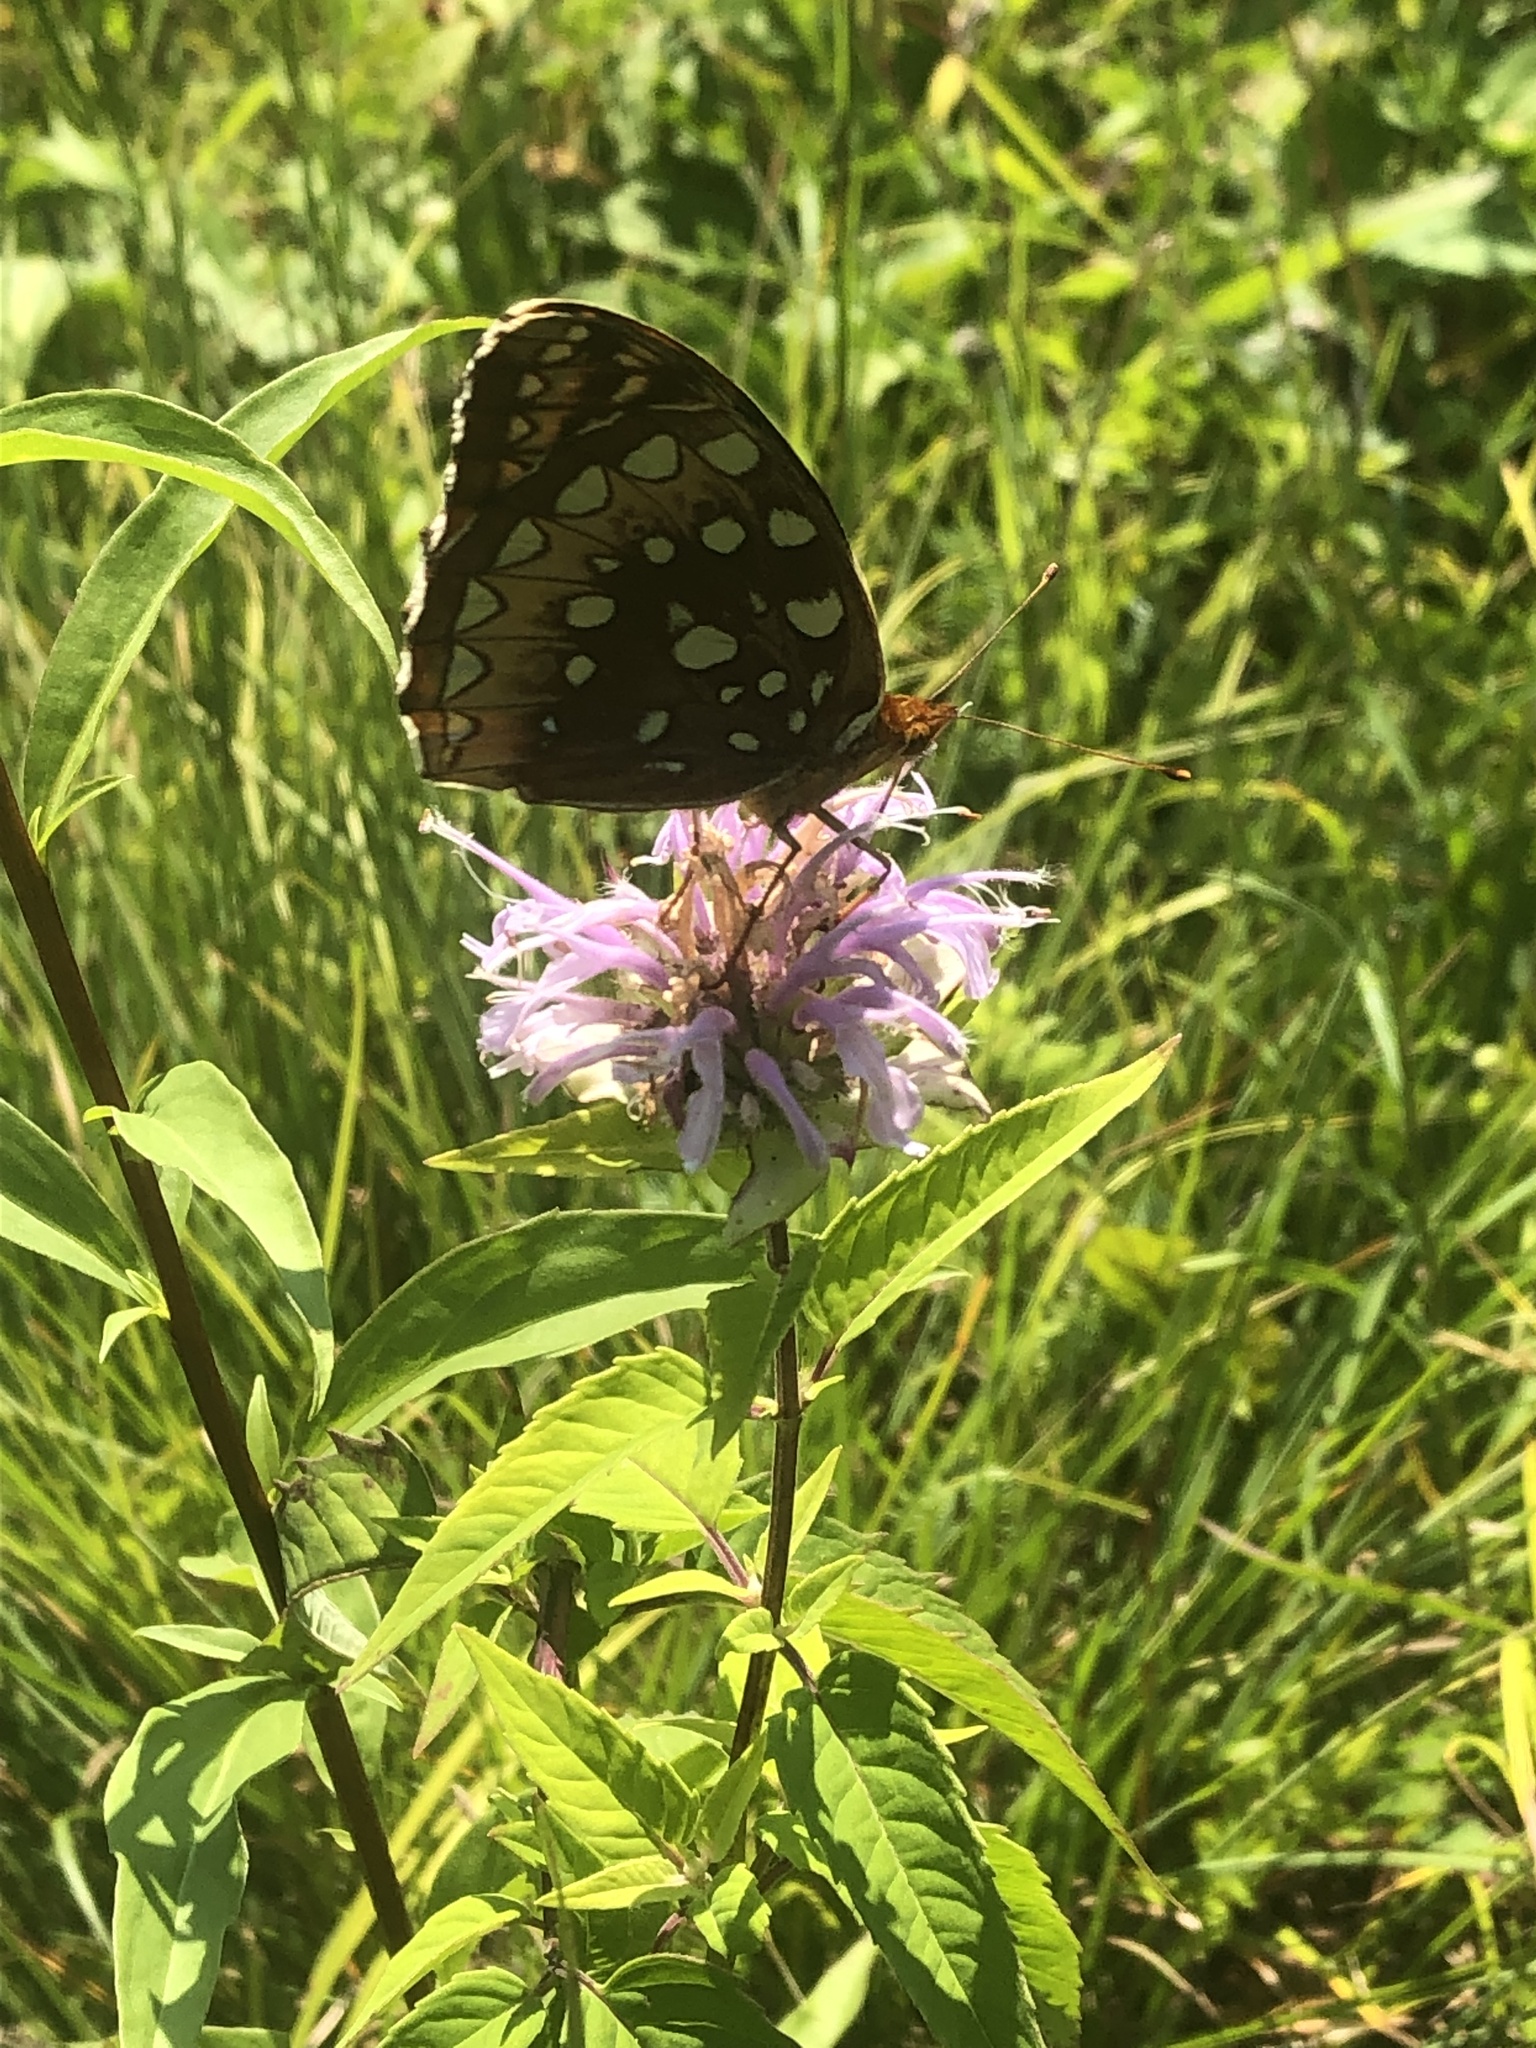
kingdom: Animalia
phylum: Arthropoda
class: Insecta
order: Lepidoptera
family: Nymphalidae
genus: Speyeria
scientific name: Speyeria cybele
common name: Great spangled fritillary
